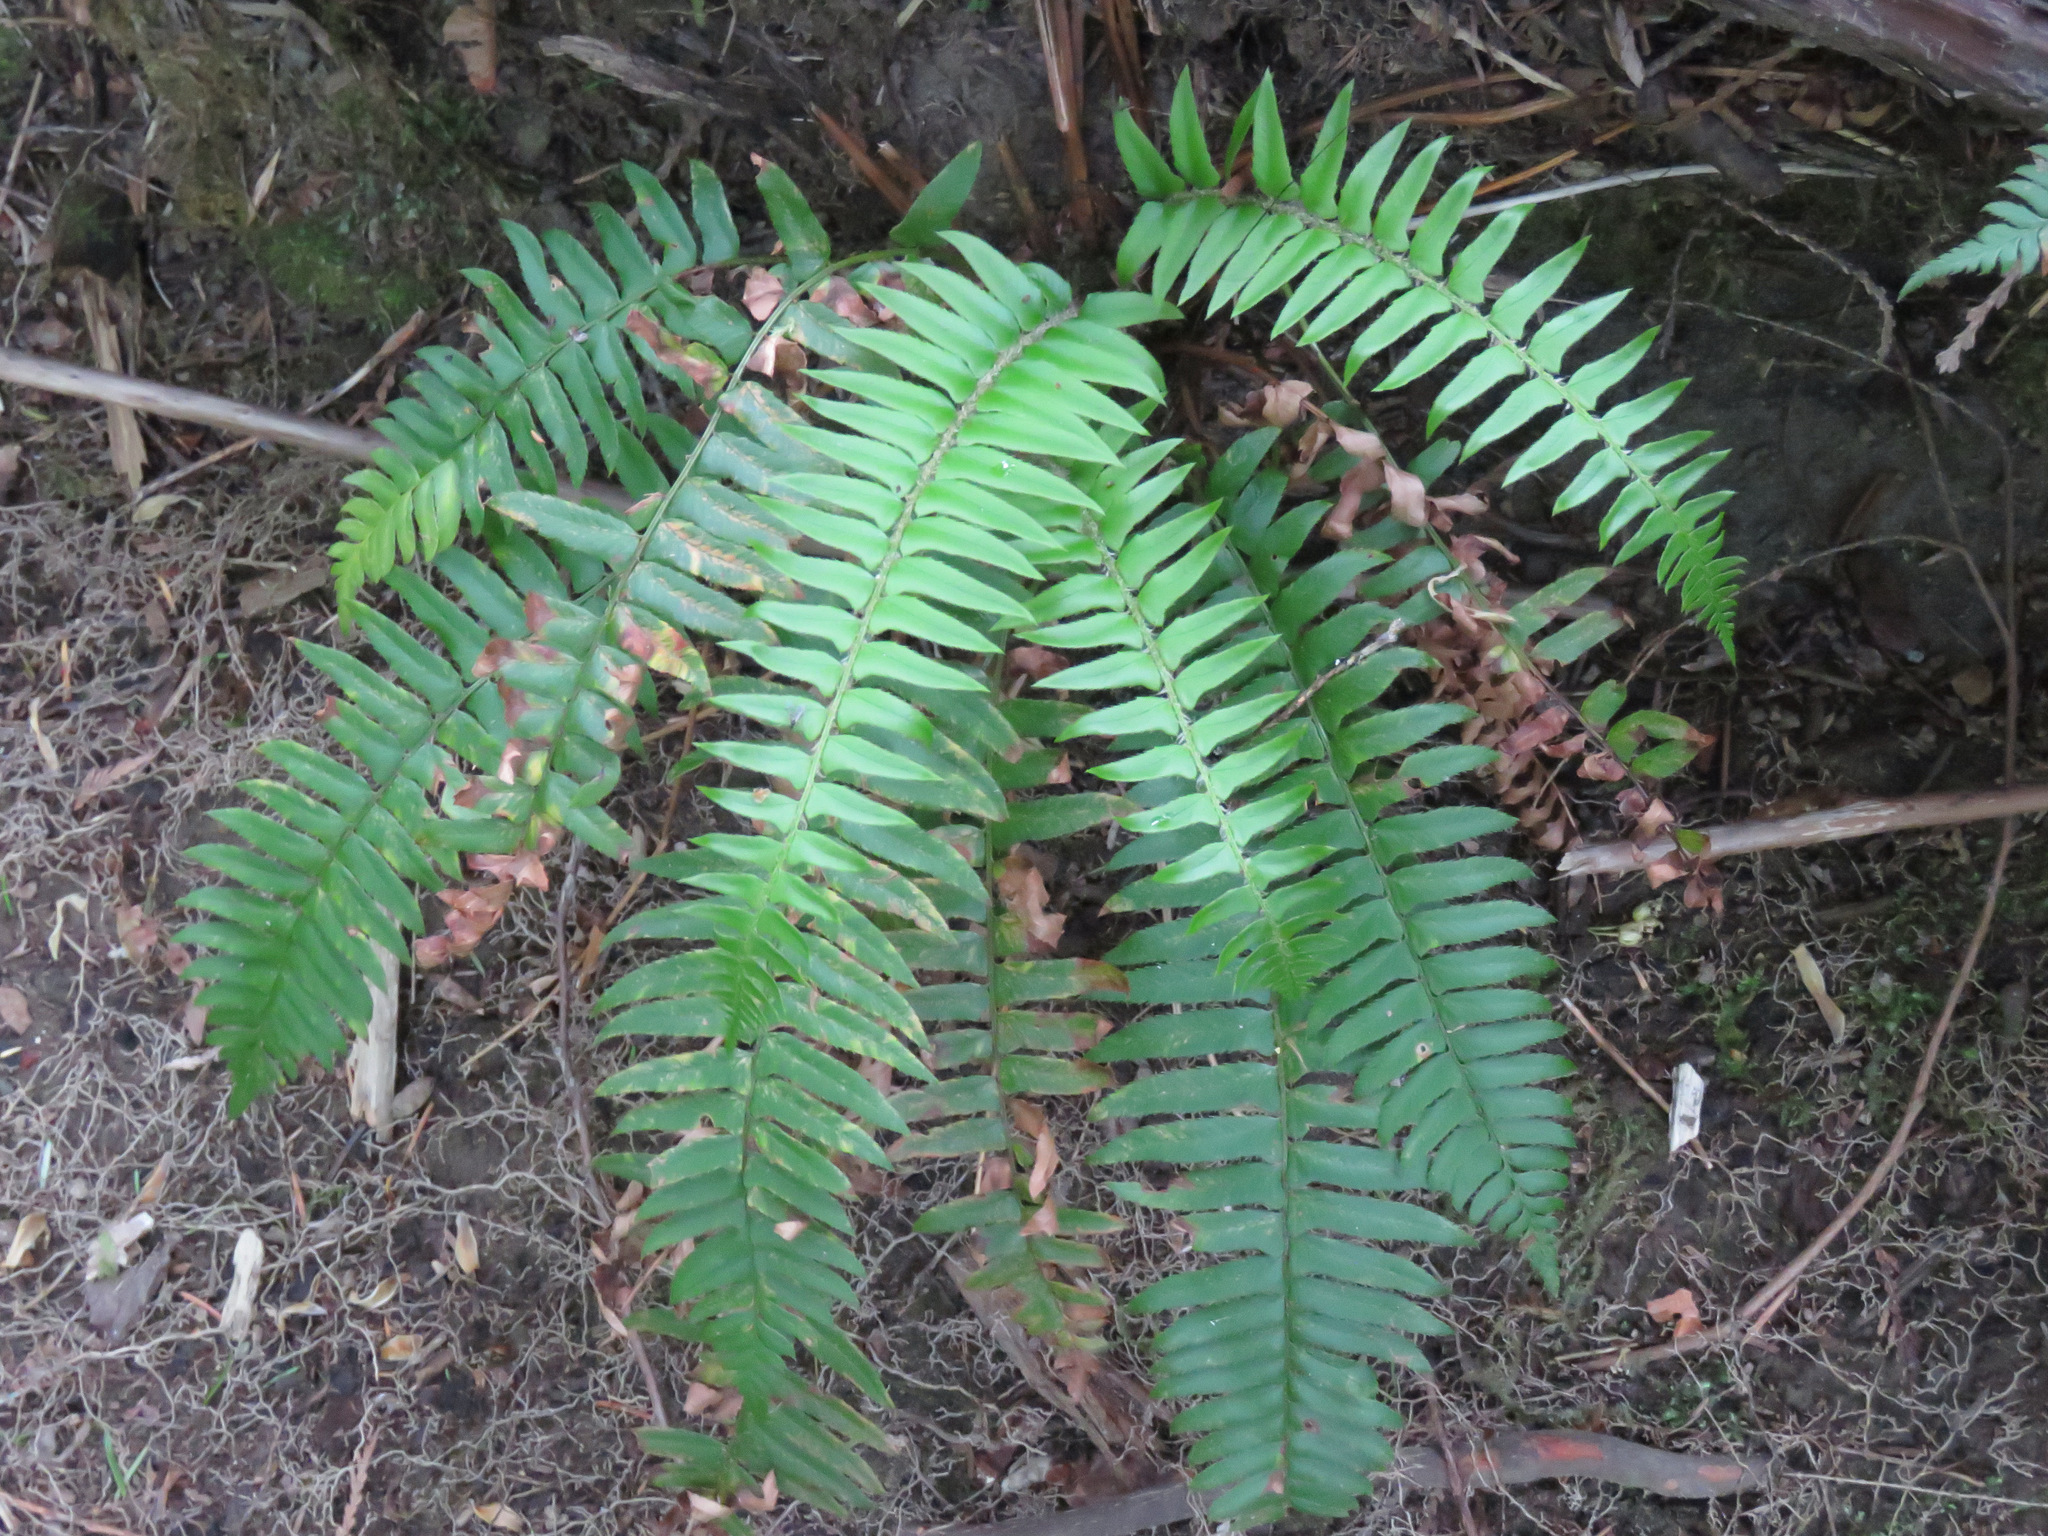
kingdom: Plantae
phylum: Tracheophyta
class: Polypodiopsida
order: Polypodiales
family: Dryopteridaceae
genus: Polystichum
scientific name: Polystichum munitum
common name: Western sword-fern
